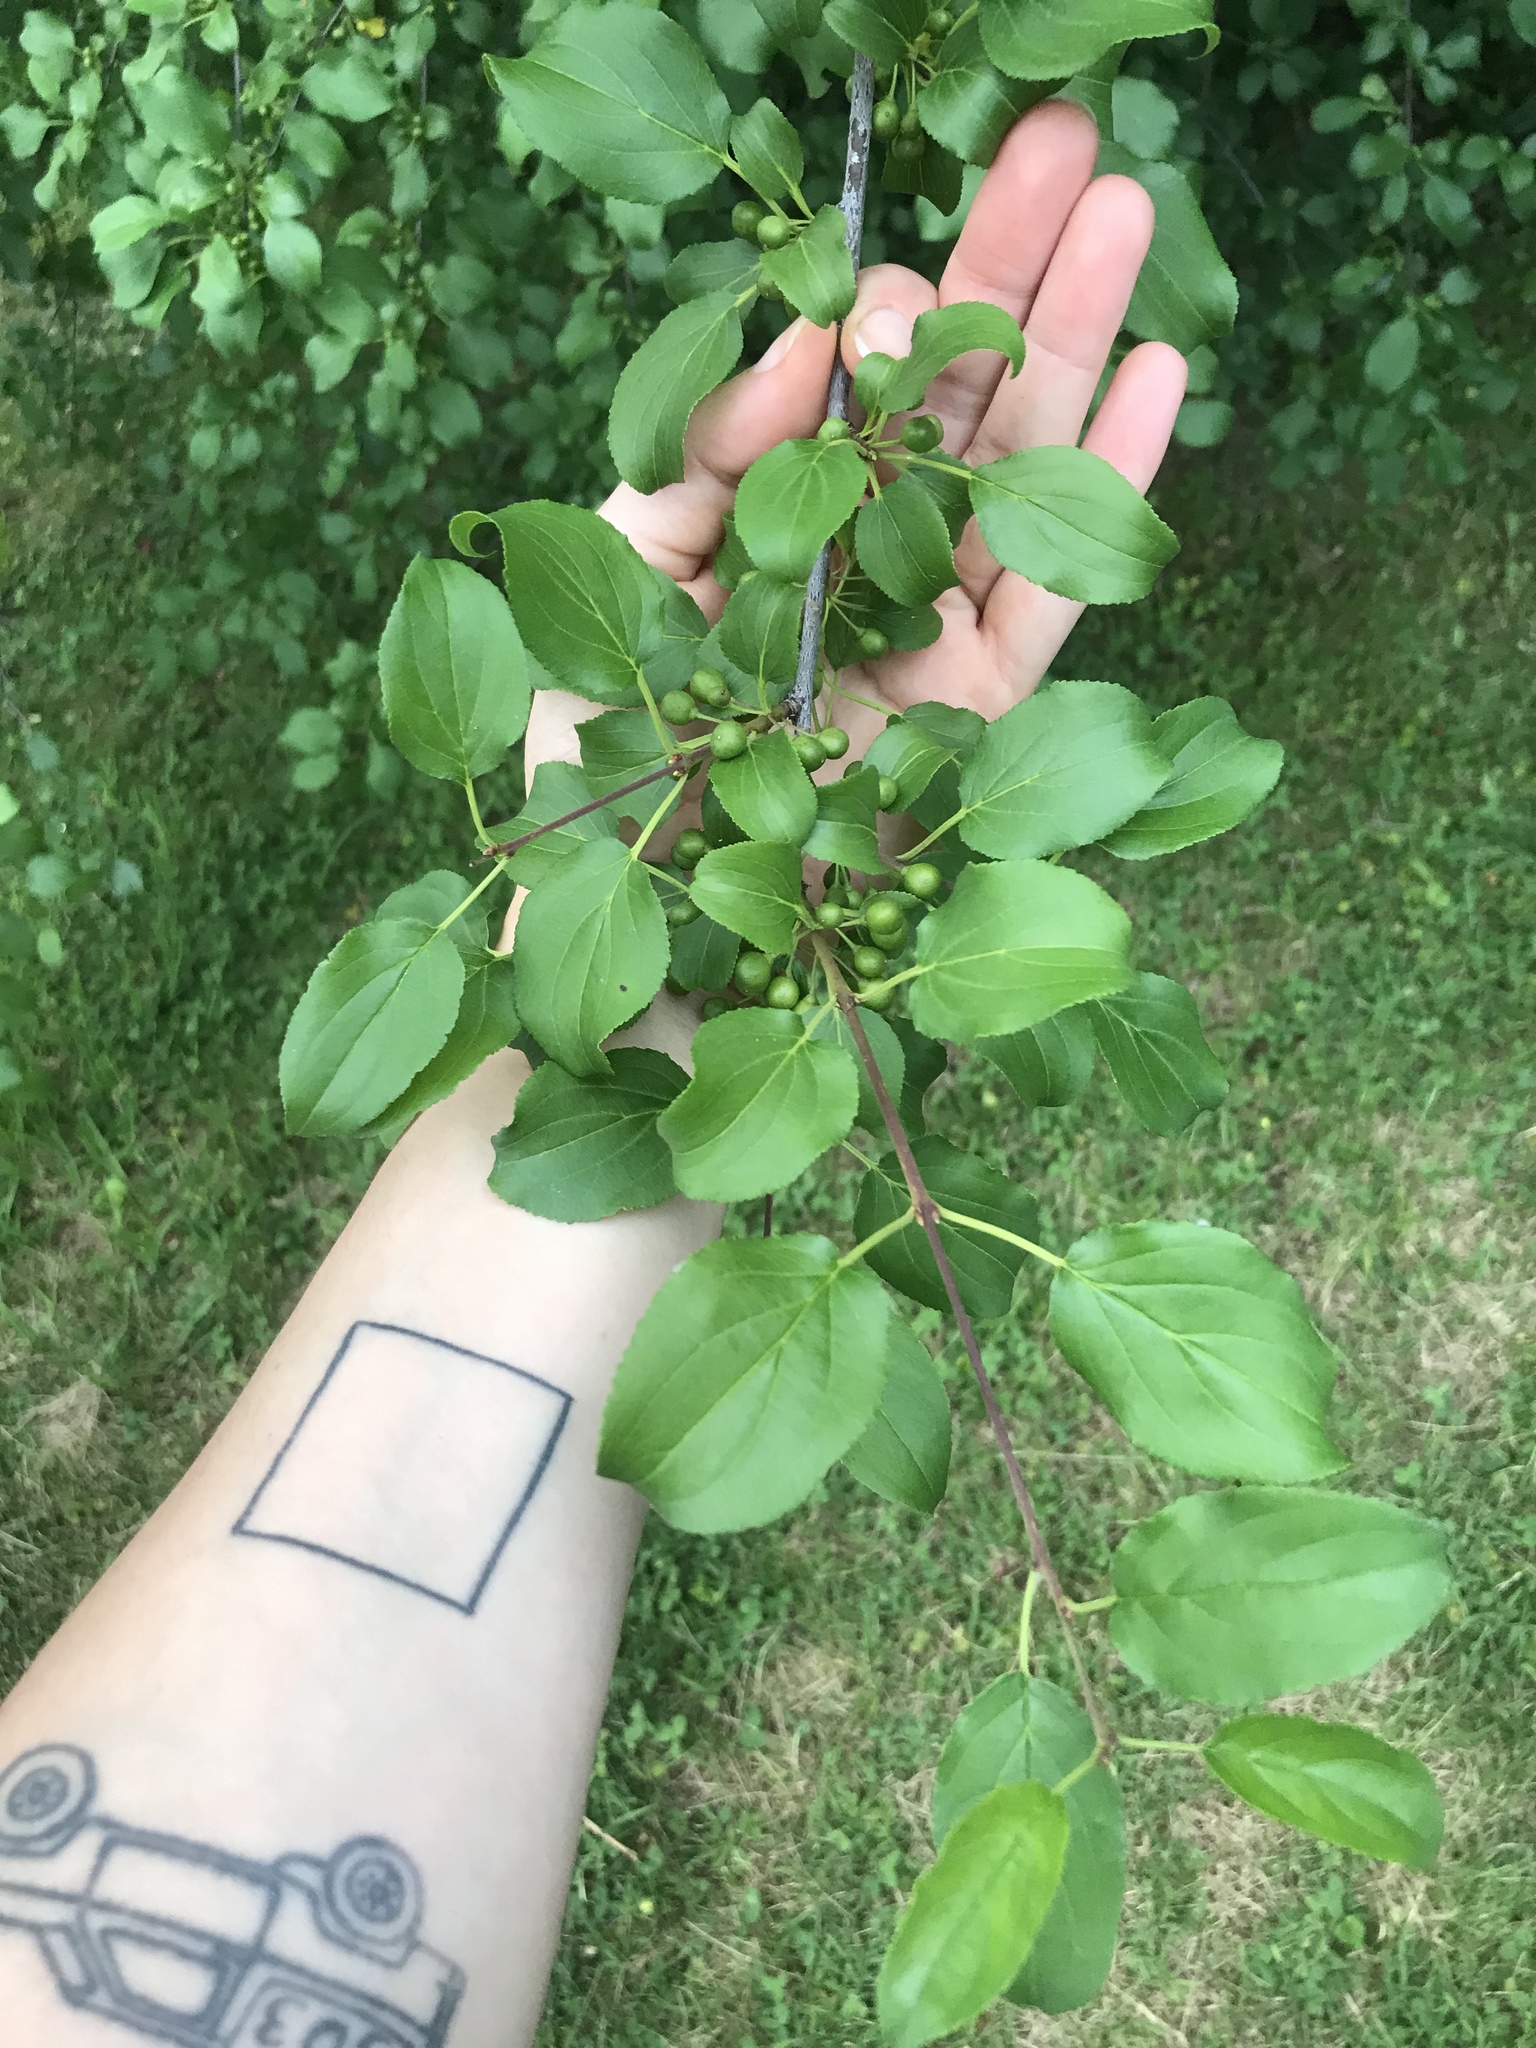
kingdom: Plantae
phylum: Tracheophyta
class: Magnoliopsida
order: Rosales
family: Rhamnaceae
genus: Rhamnus
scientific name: Rhamnus cathartica
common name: Common buckthorn
